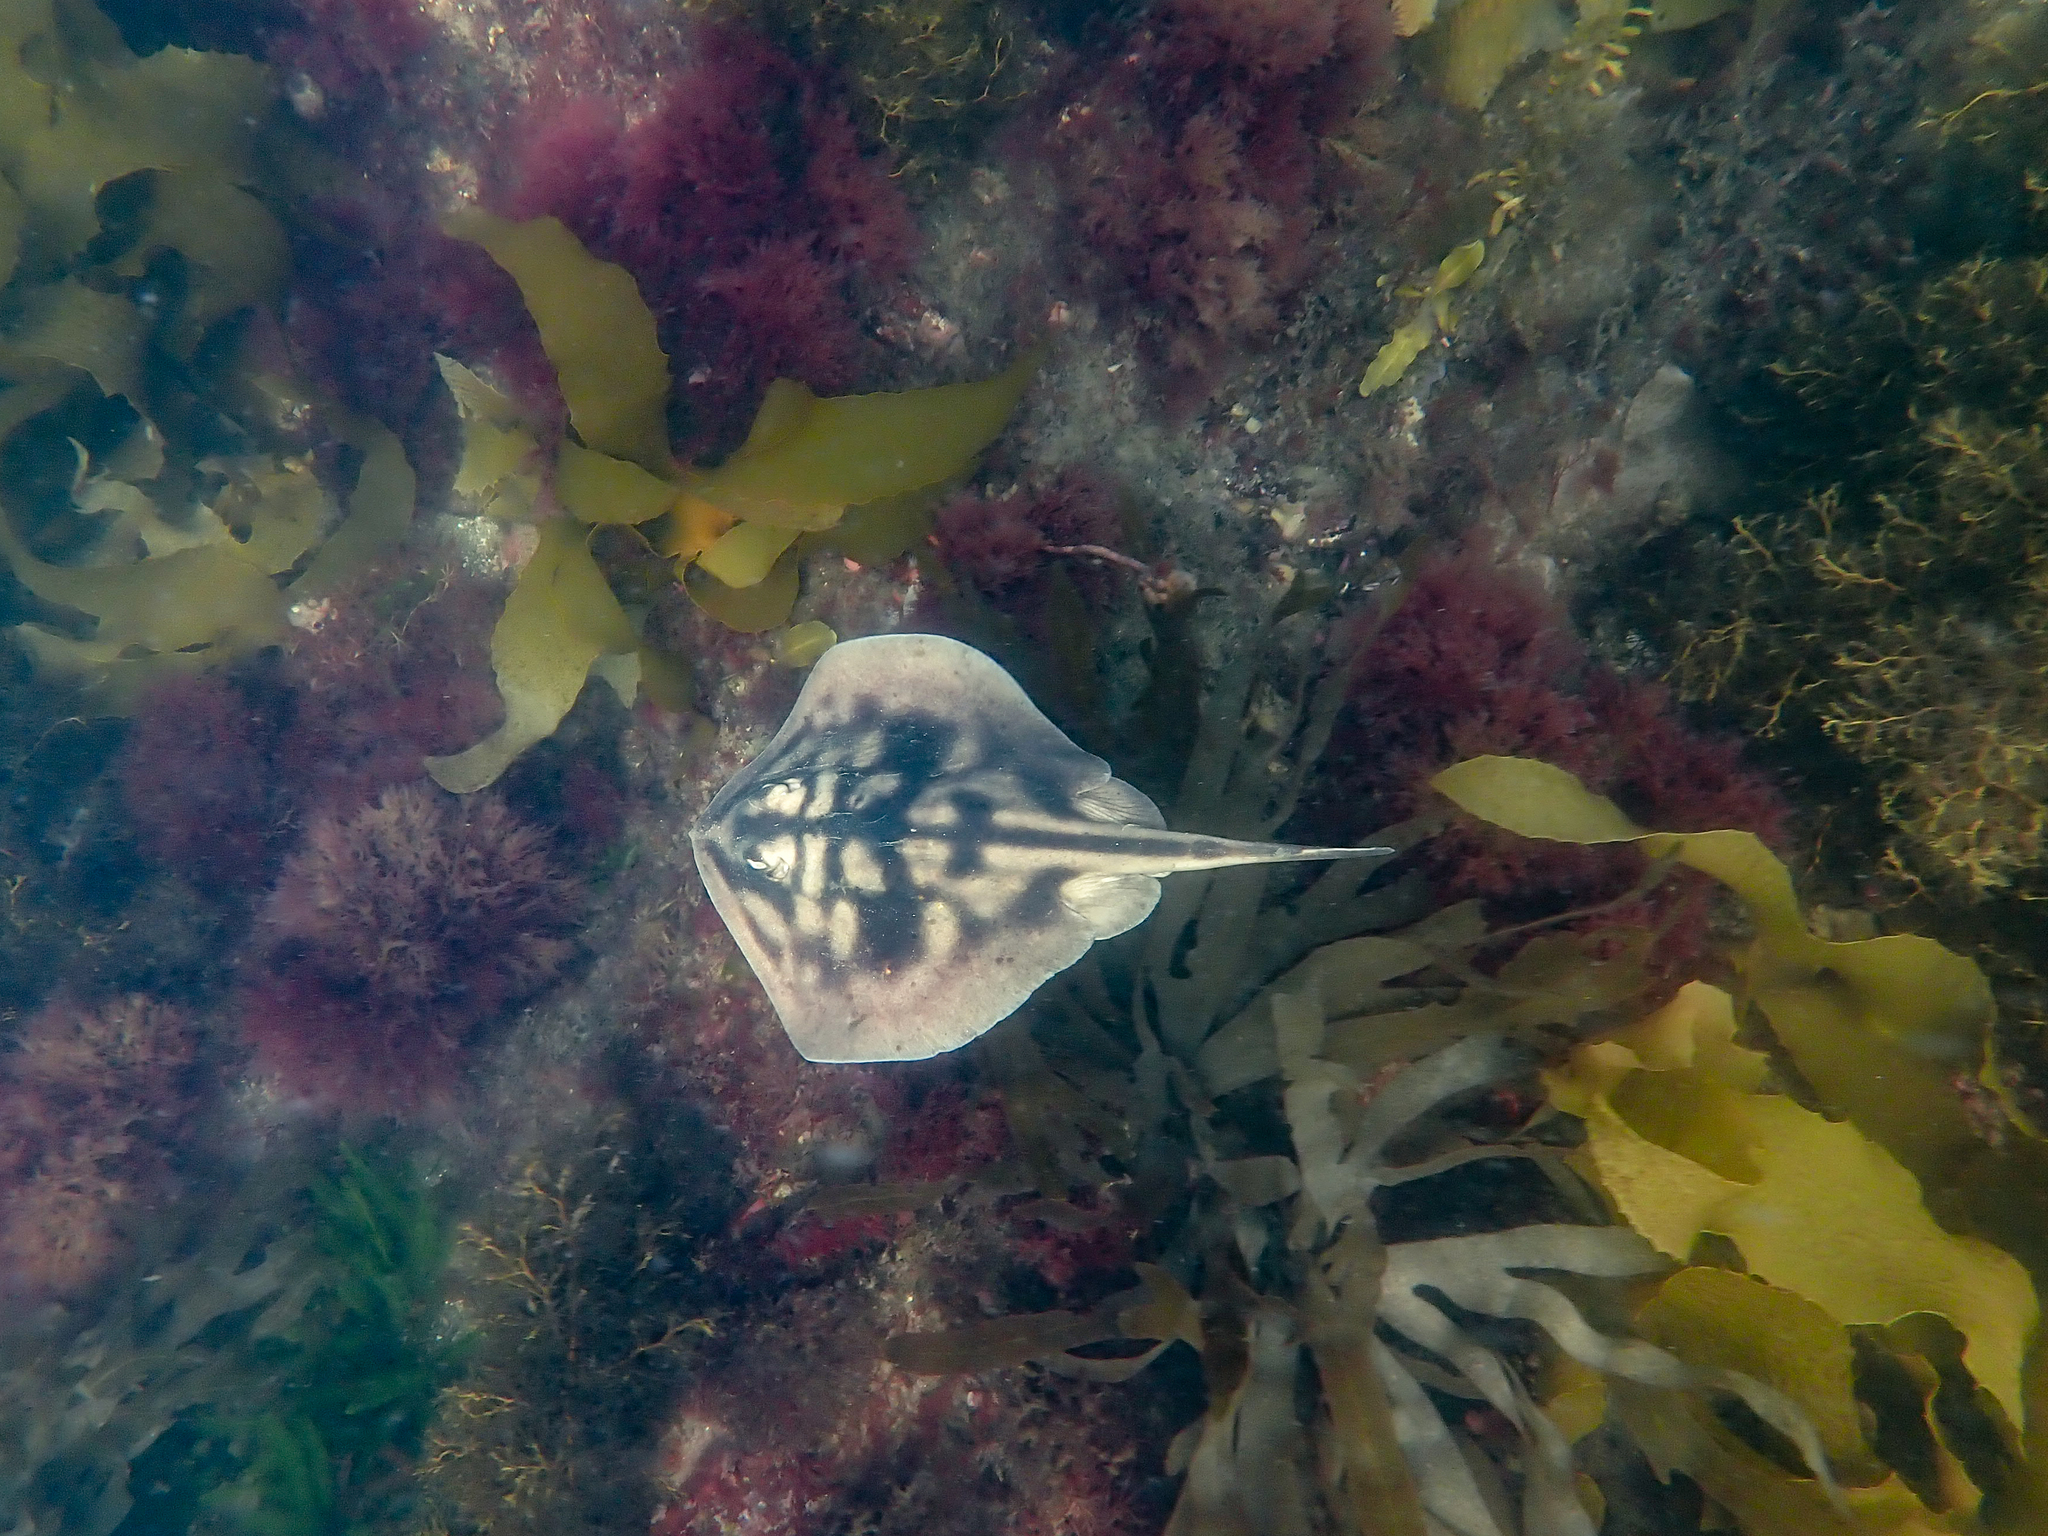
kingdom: Animalia
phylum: Chordata
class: Elasmobranchii
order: Myliobatiformes
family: Urolophidae
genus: Urolophus
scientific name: Urolophus cruciatus
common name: Banded stingaree
